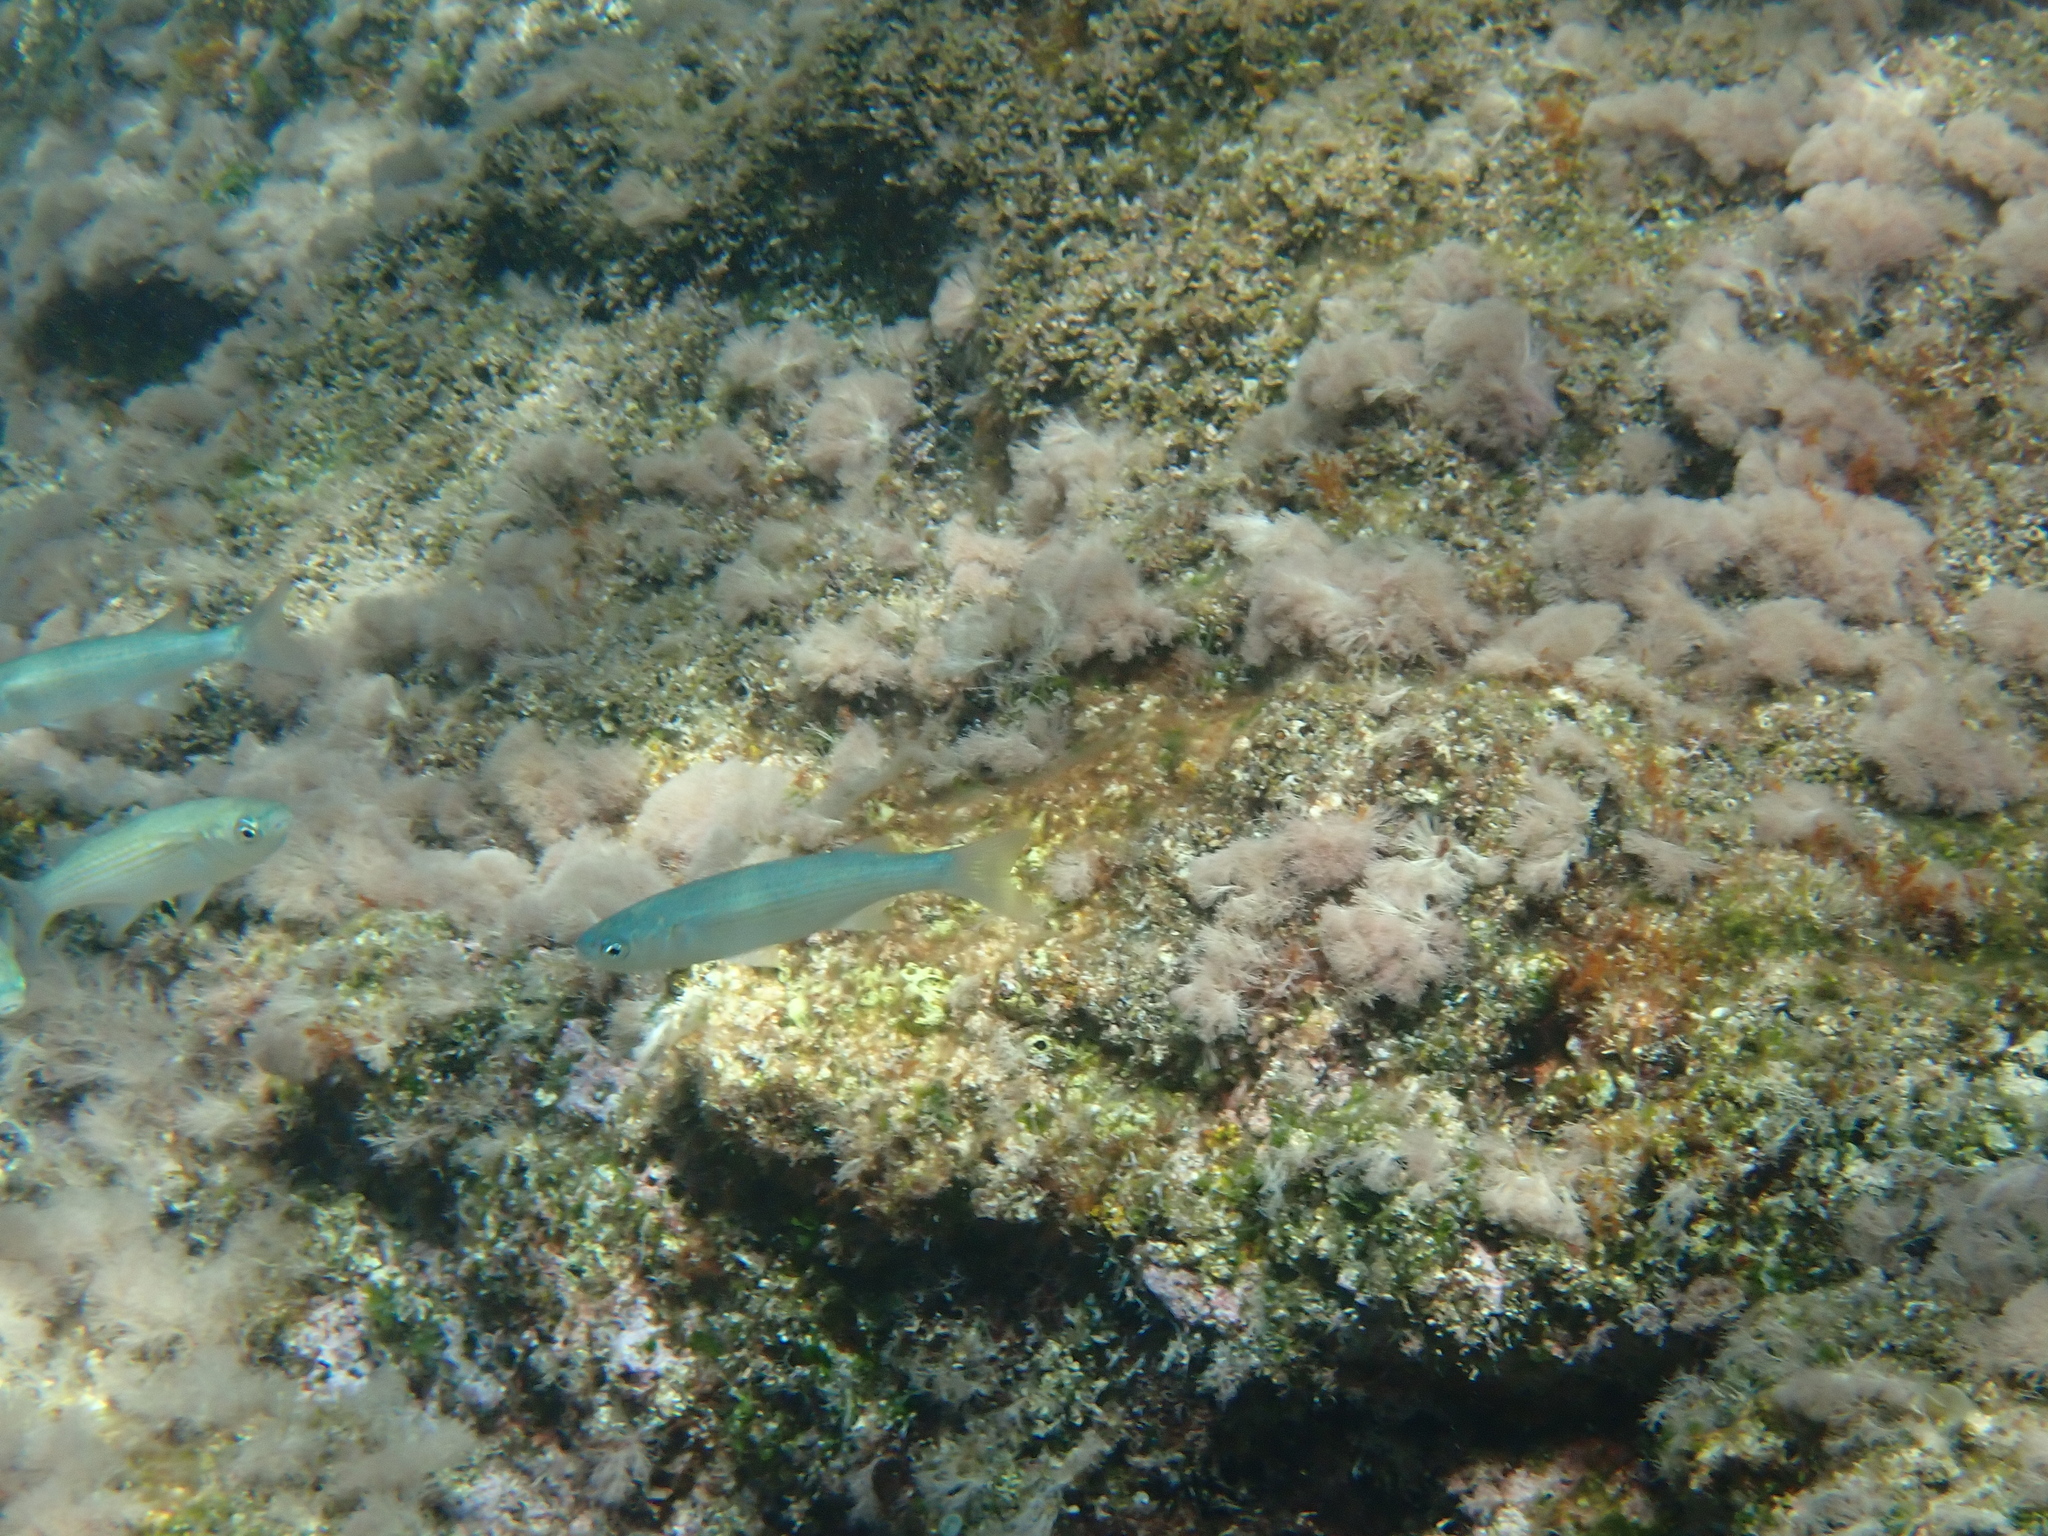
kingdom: Animalia
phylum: Chordata
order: Mugiliformes
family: Mugilidae
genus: Oedalechilus
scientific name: Oedalechilus labeo
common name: Boxlip mullet
